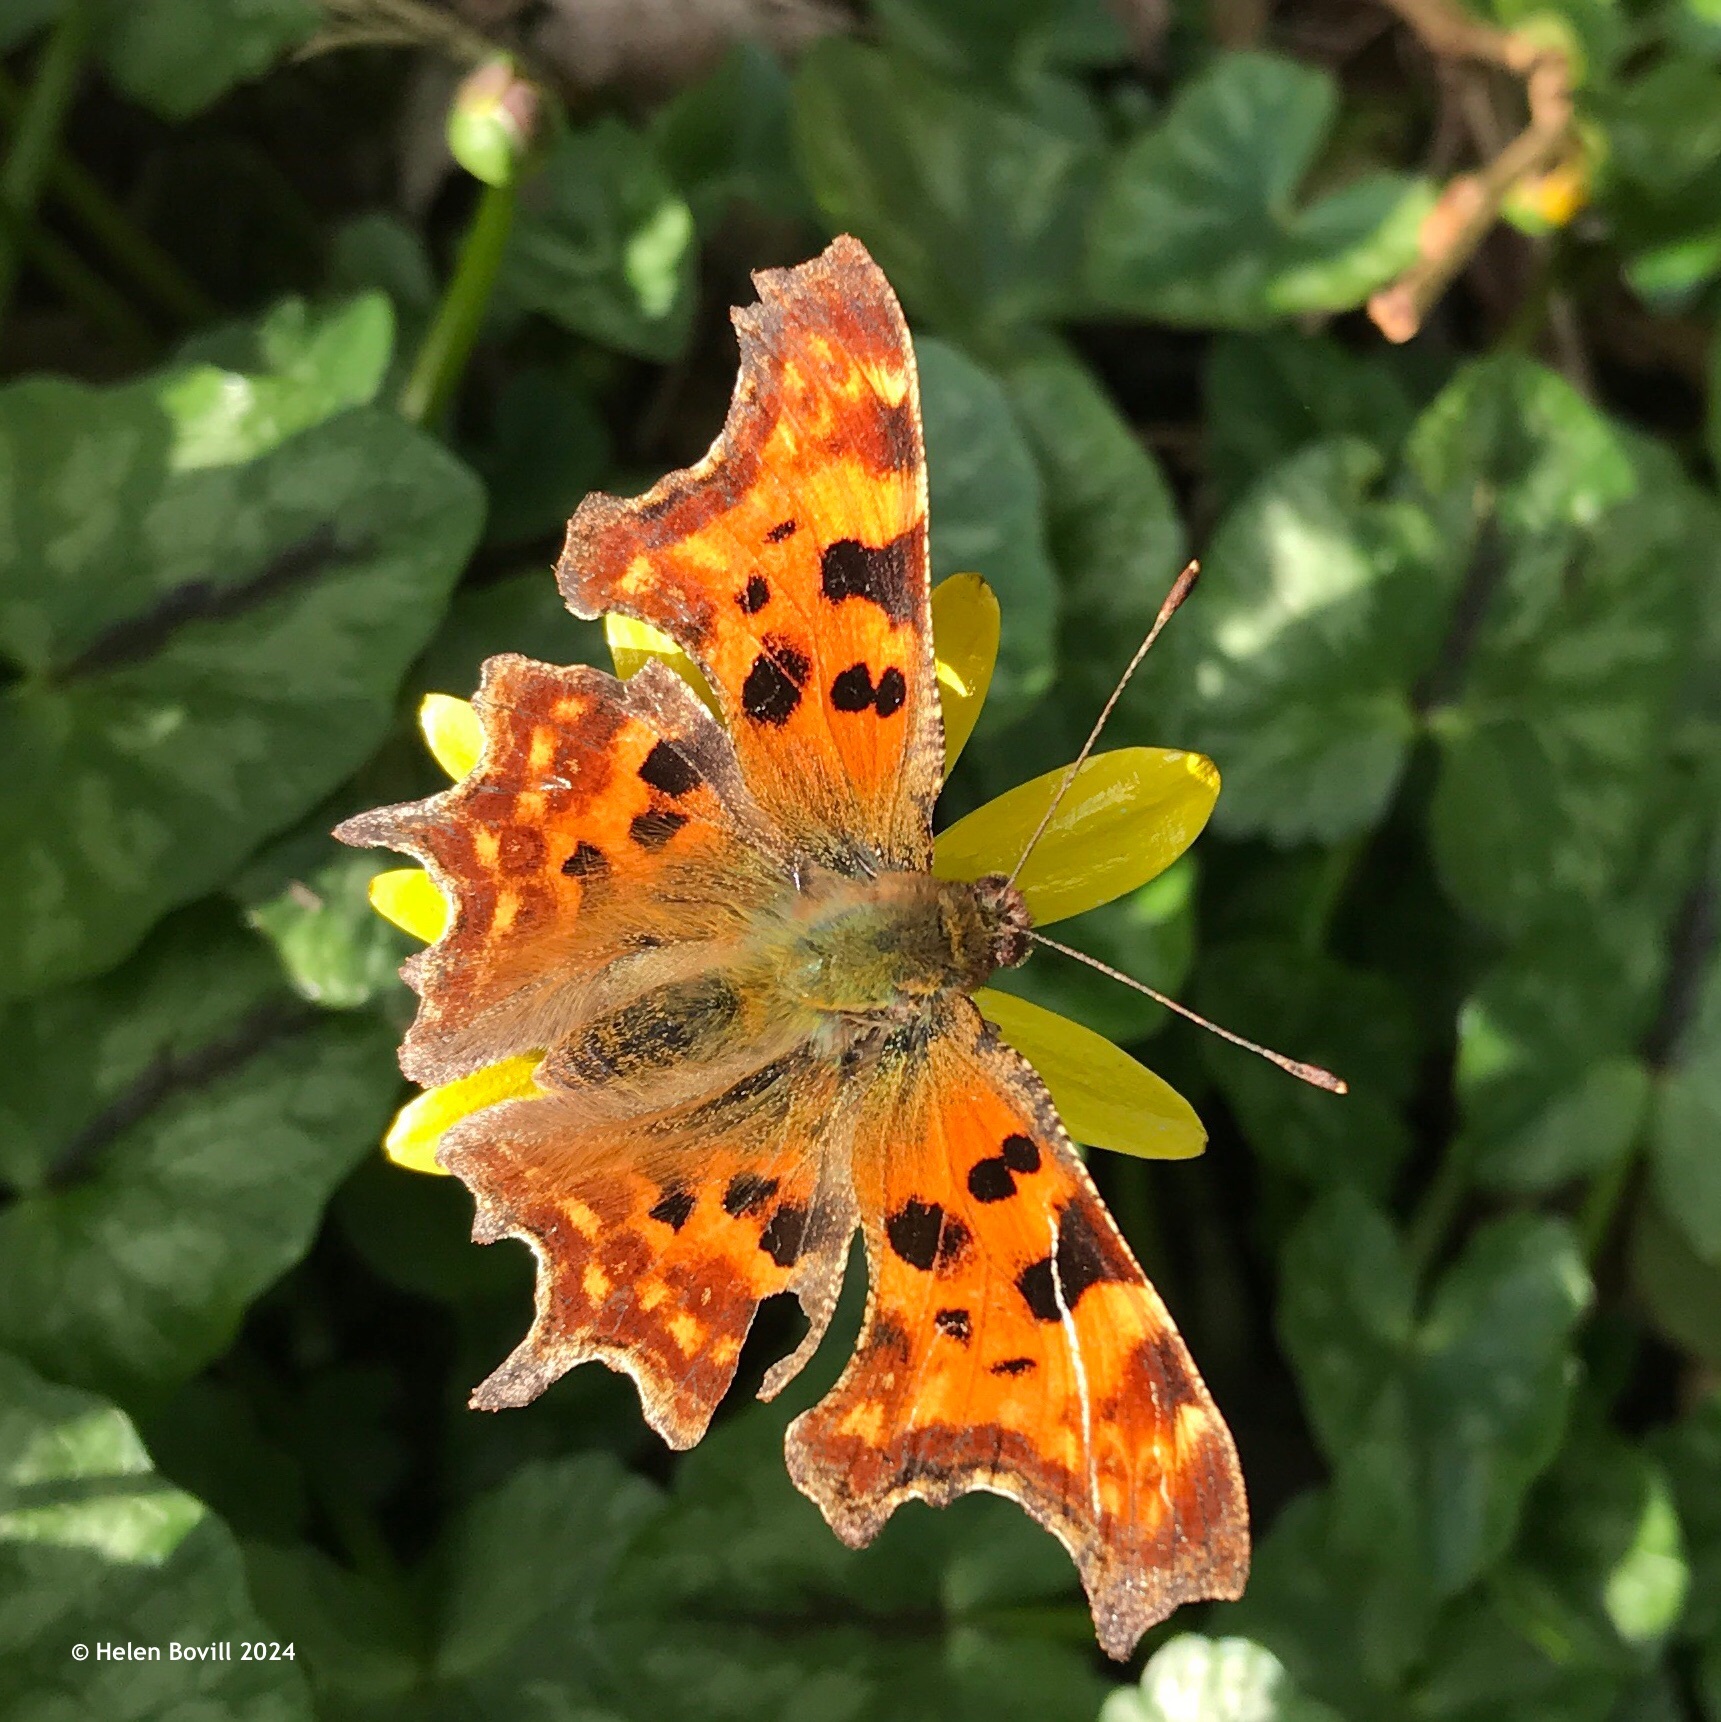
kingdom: Animalia
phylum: Arthropoda
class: Insecta
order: Lepidoptera
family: Nymphalidae
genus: Polygonia
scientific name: Polygonia c-album
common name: Comma
